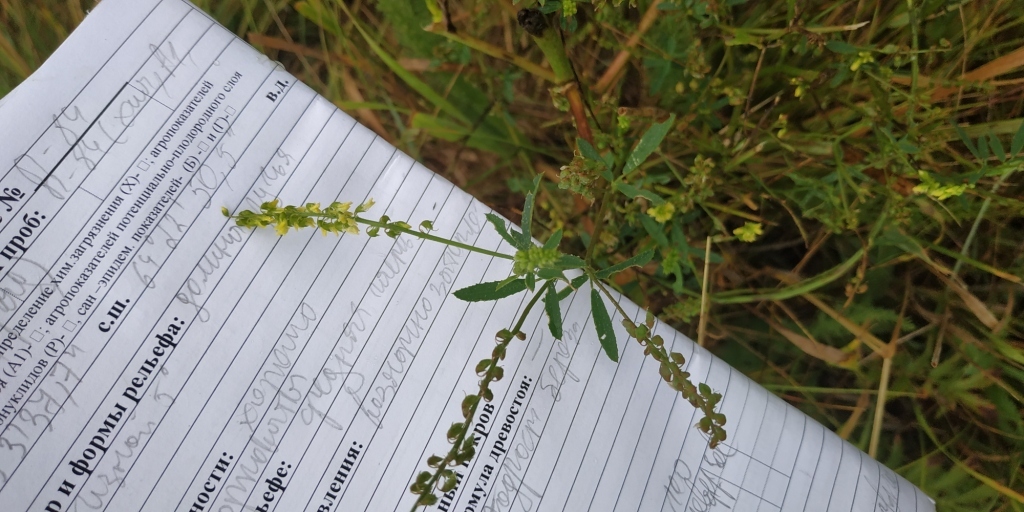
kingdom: Plantae
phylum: Tracheophyta
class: Magnoliopsida
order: Fabales
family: Fabaceae
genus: Melilotus
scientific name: Melilotus officinalis
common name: Sweetclover
